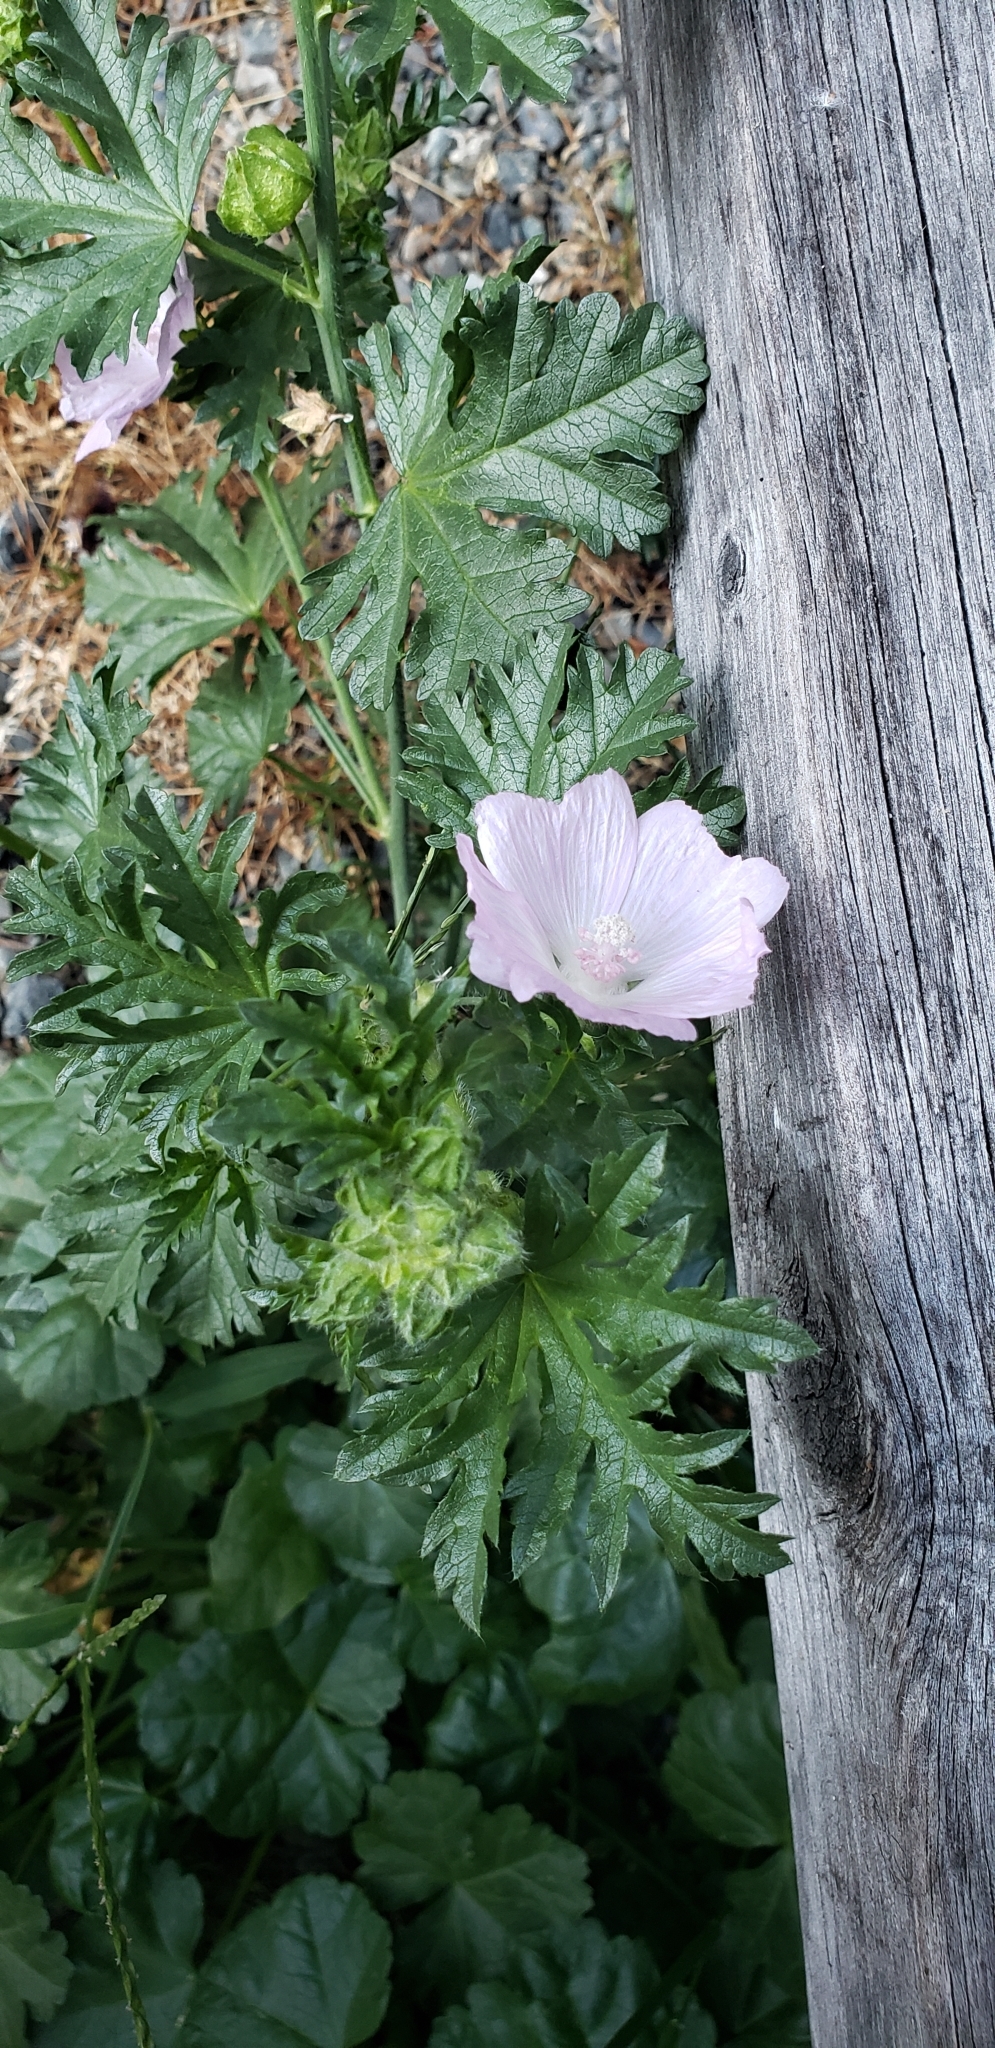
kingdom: Plantae
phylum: Tracheophyta
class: Magnoliopsida
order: Malvales
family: Malvaceae
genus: Malva
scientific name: Malva moschata
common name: Musk mallow
